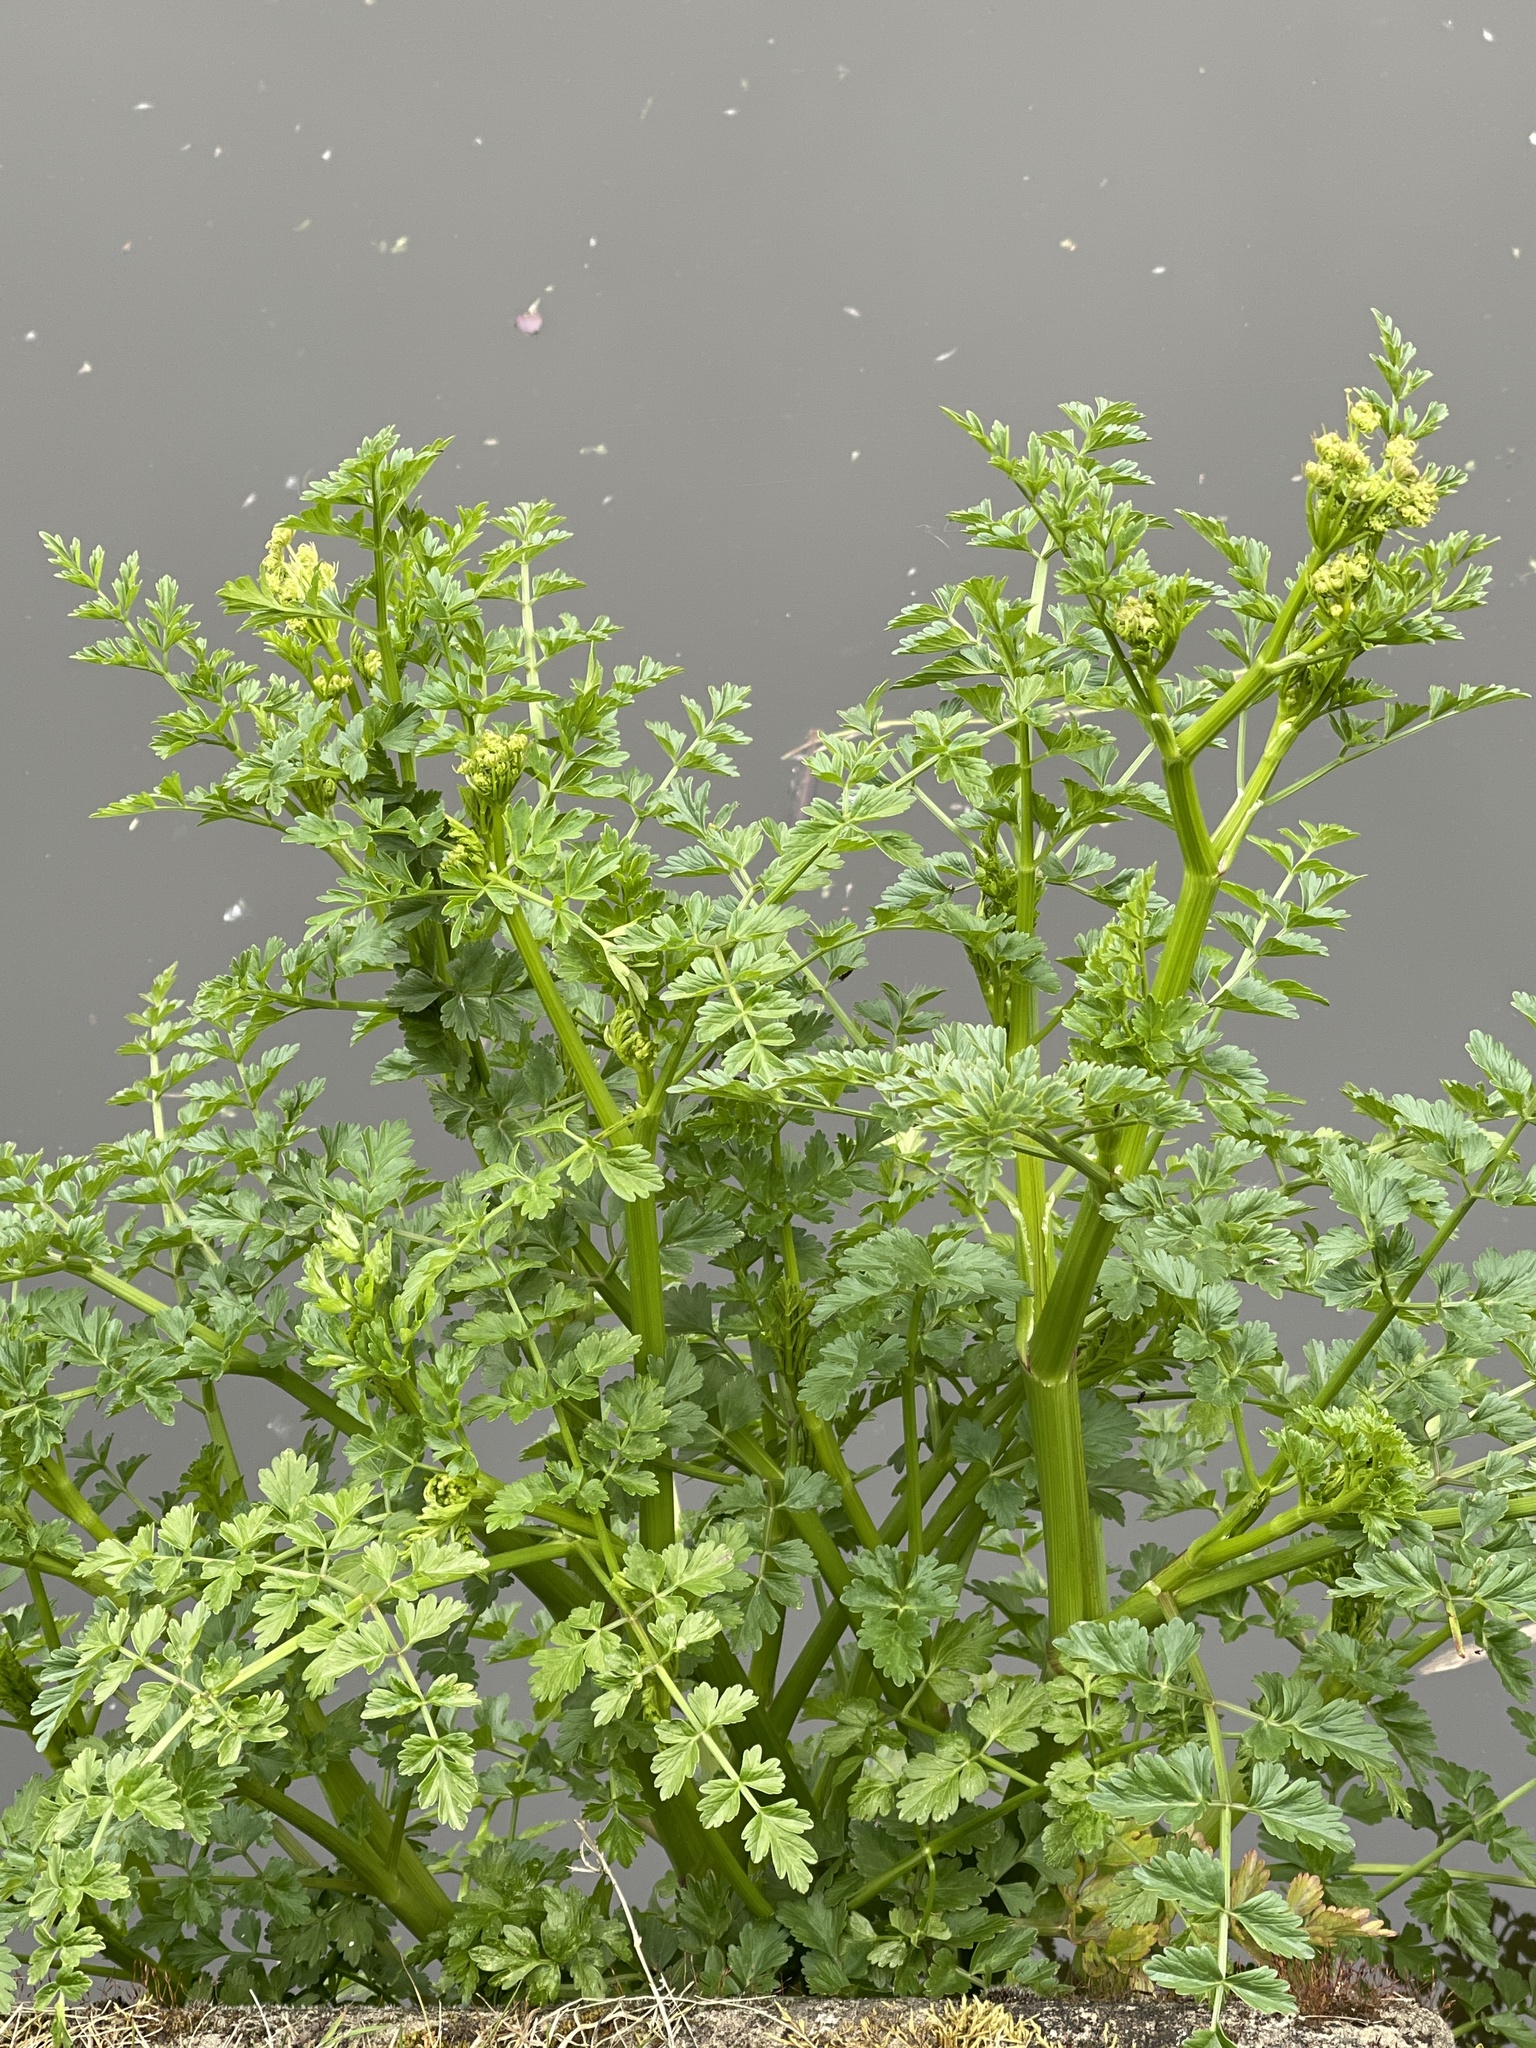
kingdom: Plantae
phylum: Tracheophyta
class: Magnoliopsida
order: Apiales
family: Apiaceae
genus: Oenanthe
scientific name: Oenanthe crocata
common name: Hemlock water-dropwort
